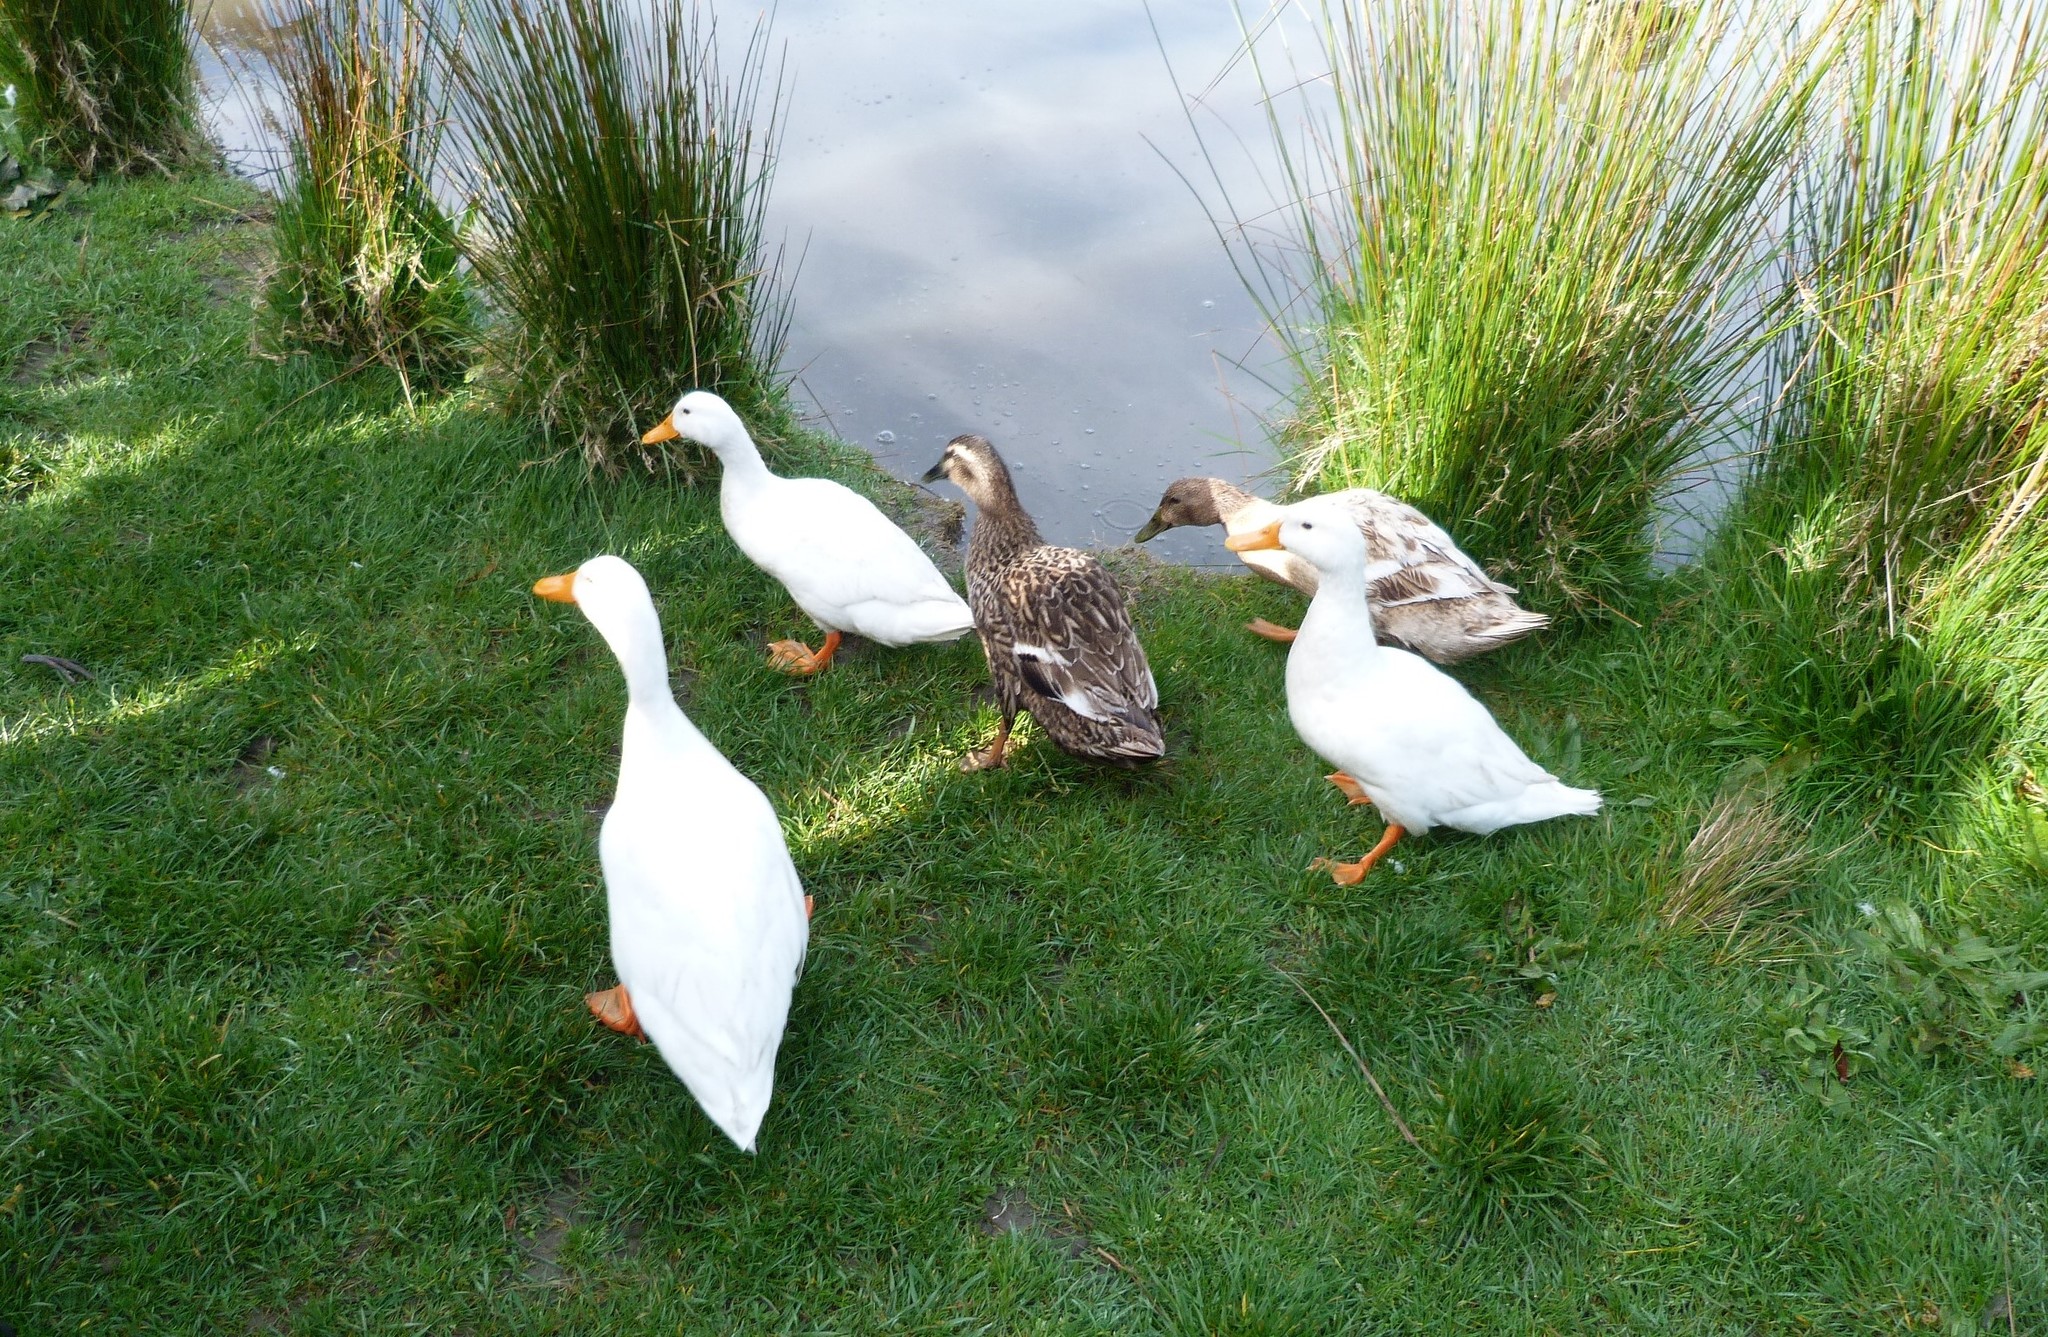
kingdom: Animalia
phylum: Chordata
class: Aves
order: Anseriformes
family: Anatidae
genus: Anas
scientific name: Anas platyrhynchos
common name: Mallard
